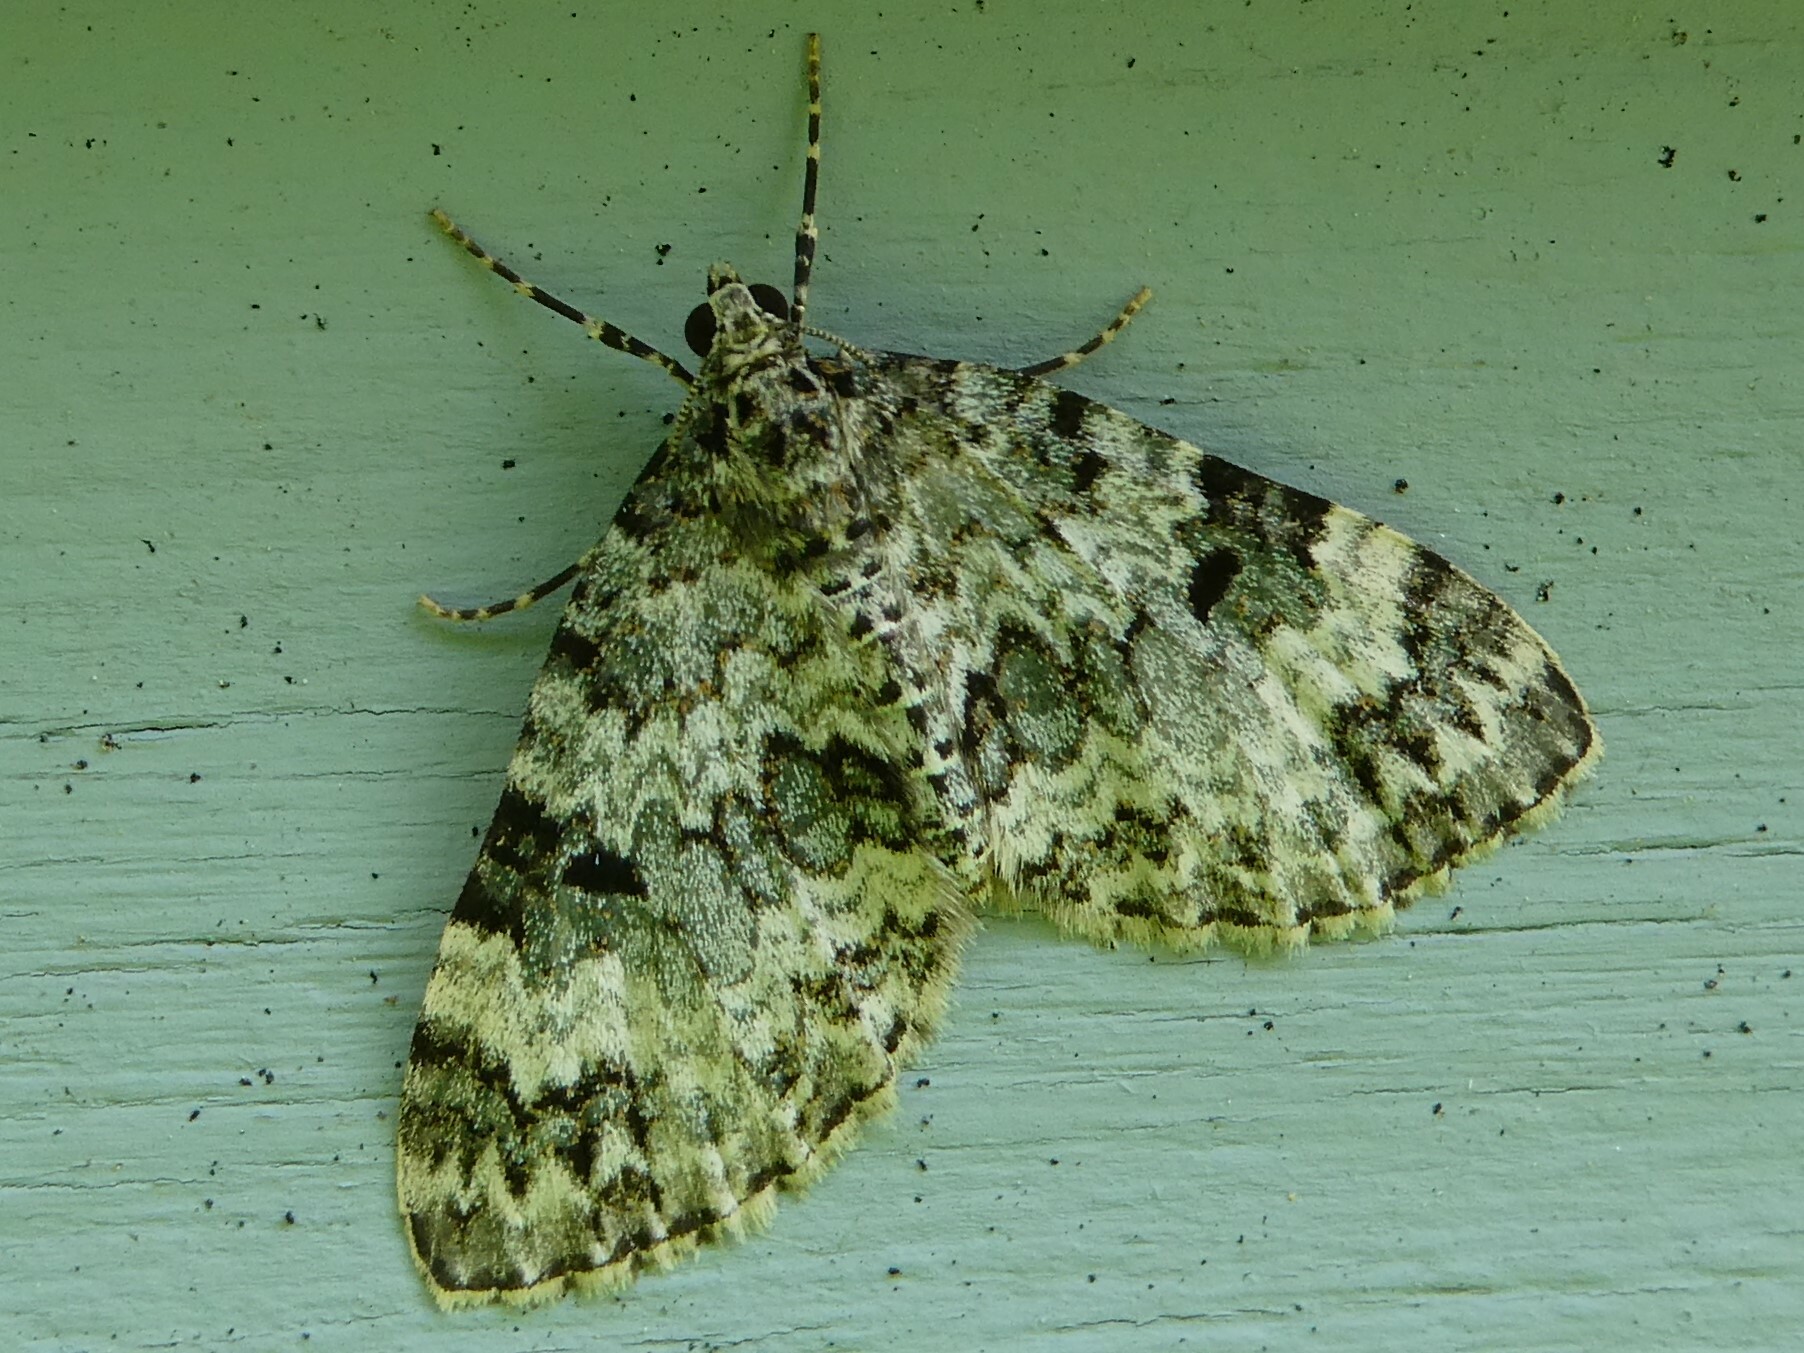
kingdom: Animalia
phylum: Arthropoda
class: Insecta
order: Lepidoptera
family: Geometridae
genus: Spargania
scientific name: Spargania magnoliata
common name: Double-banded carpet
